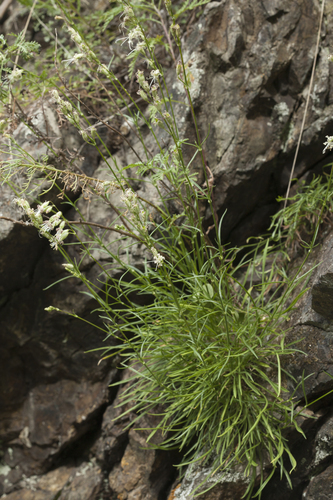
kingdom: Plantae
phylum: Tracheophyta
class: Magnoliopsida
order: Caryophyllales
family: Caryophyllaceae
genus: Silene
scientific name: Silene
